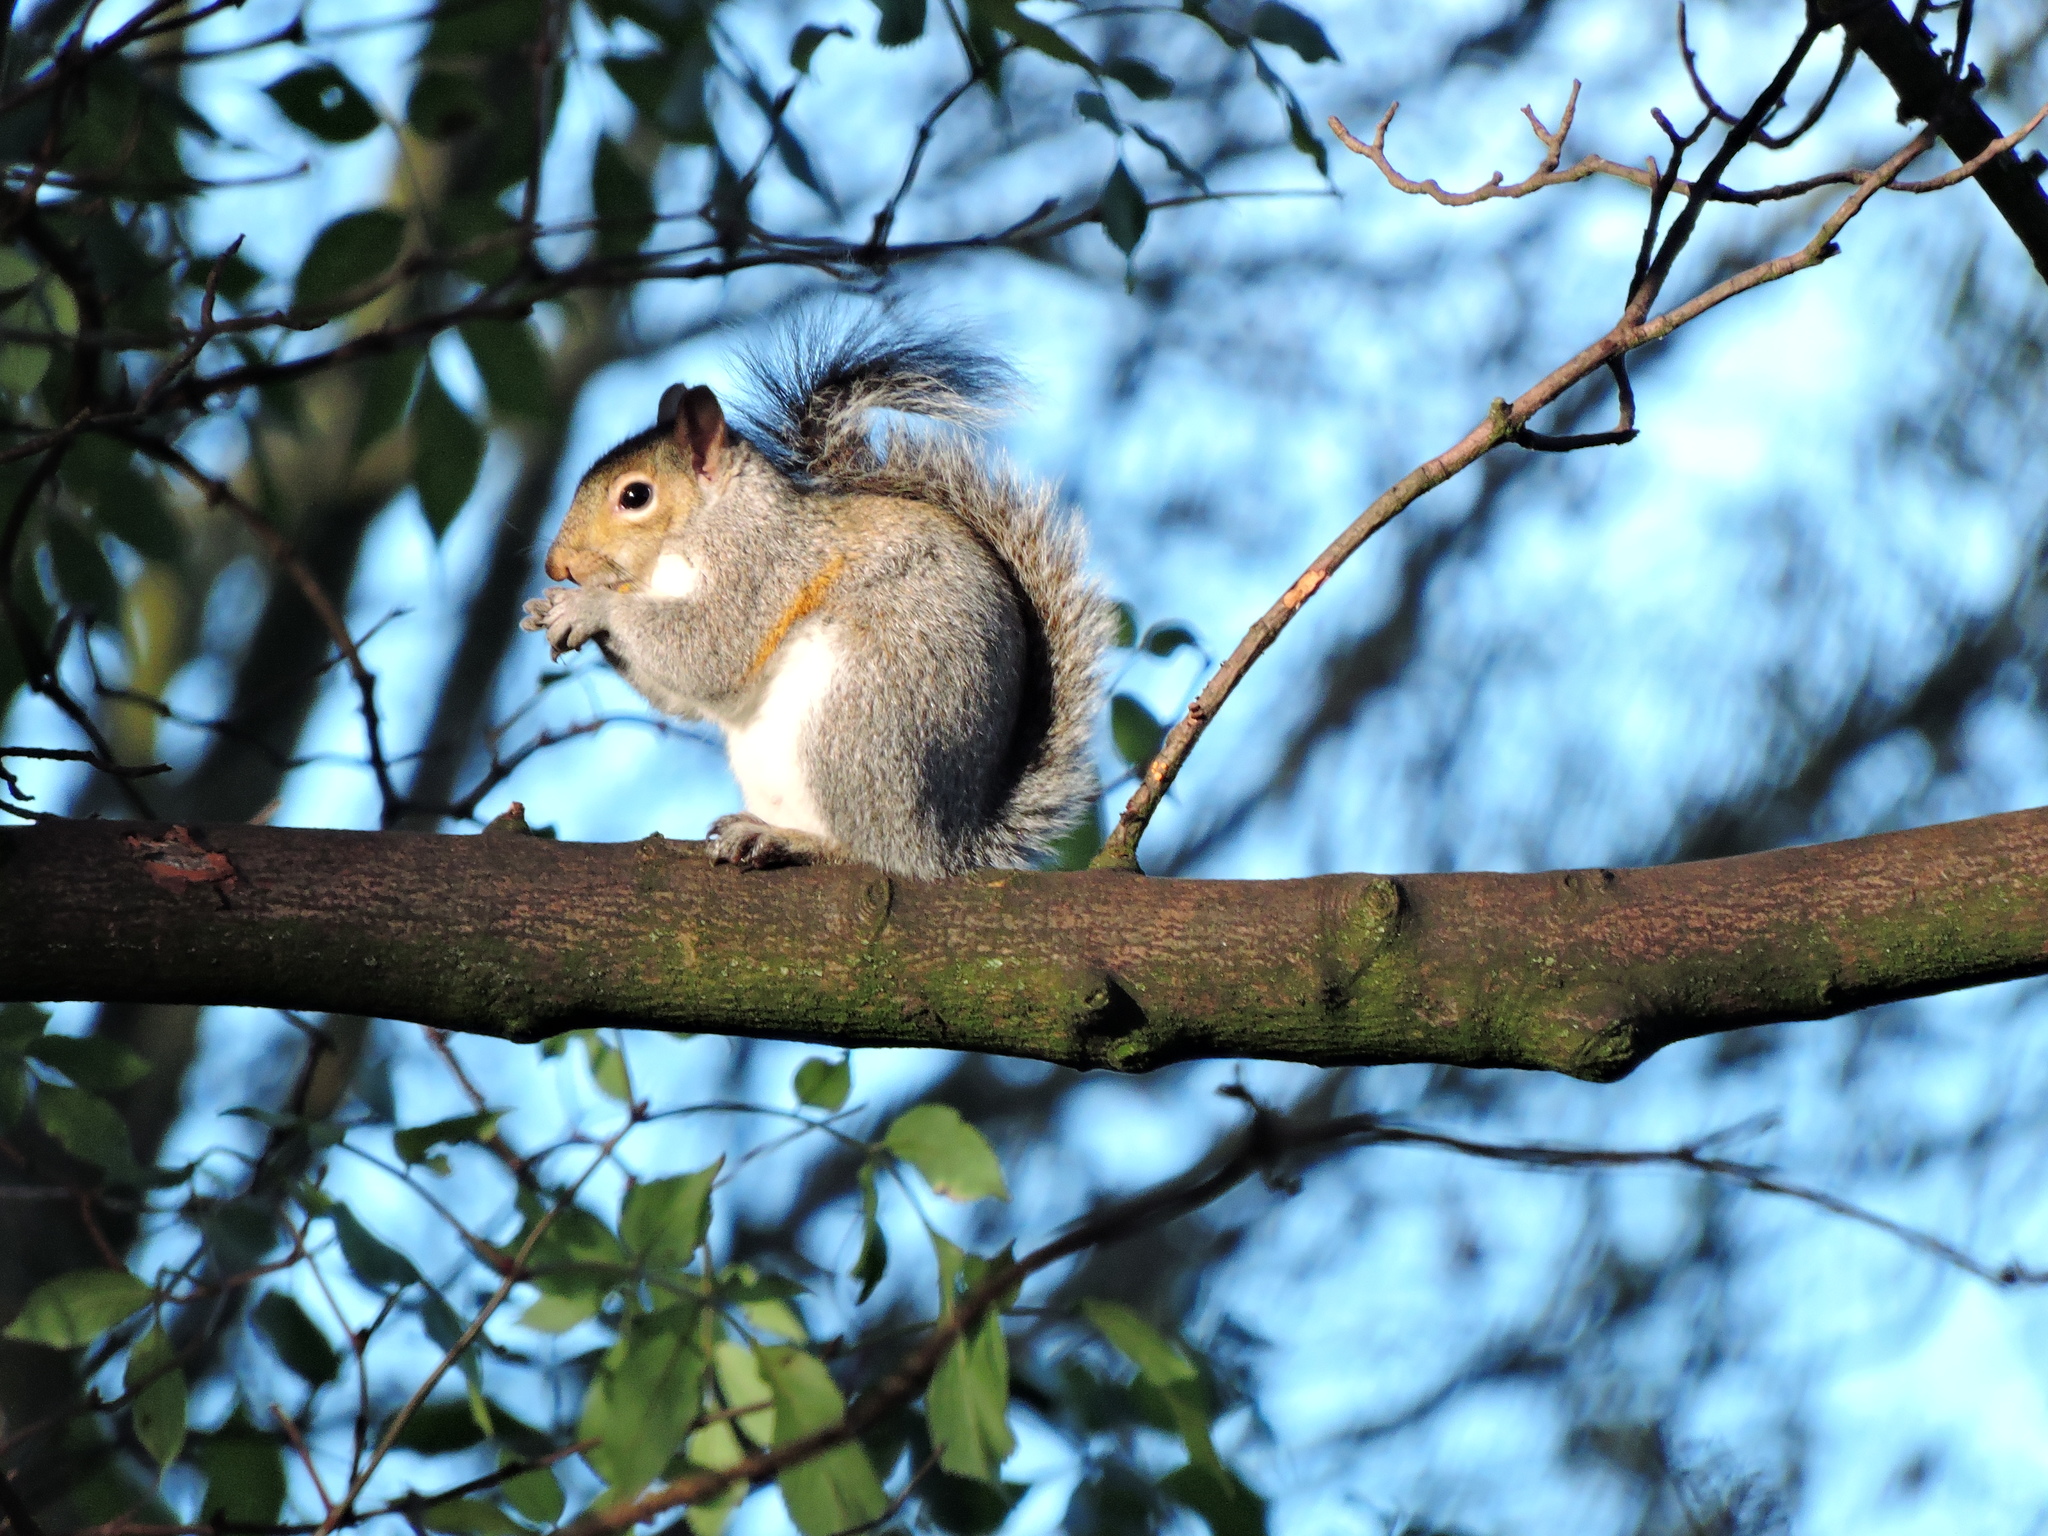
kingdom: Animalia
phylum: Chordata
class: Mammalia
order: Rodentia
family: Sciuridae
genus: Sciurus
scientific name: Sciurus carolinensis
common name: Eastern gray squirrel
